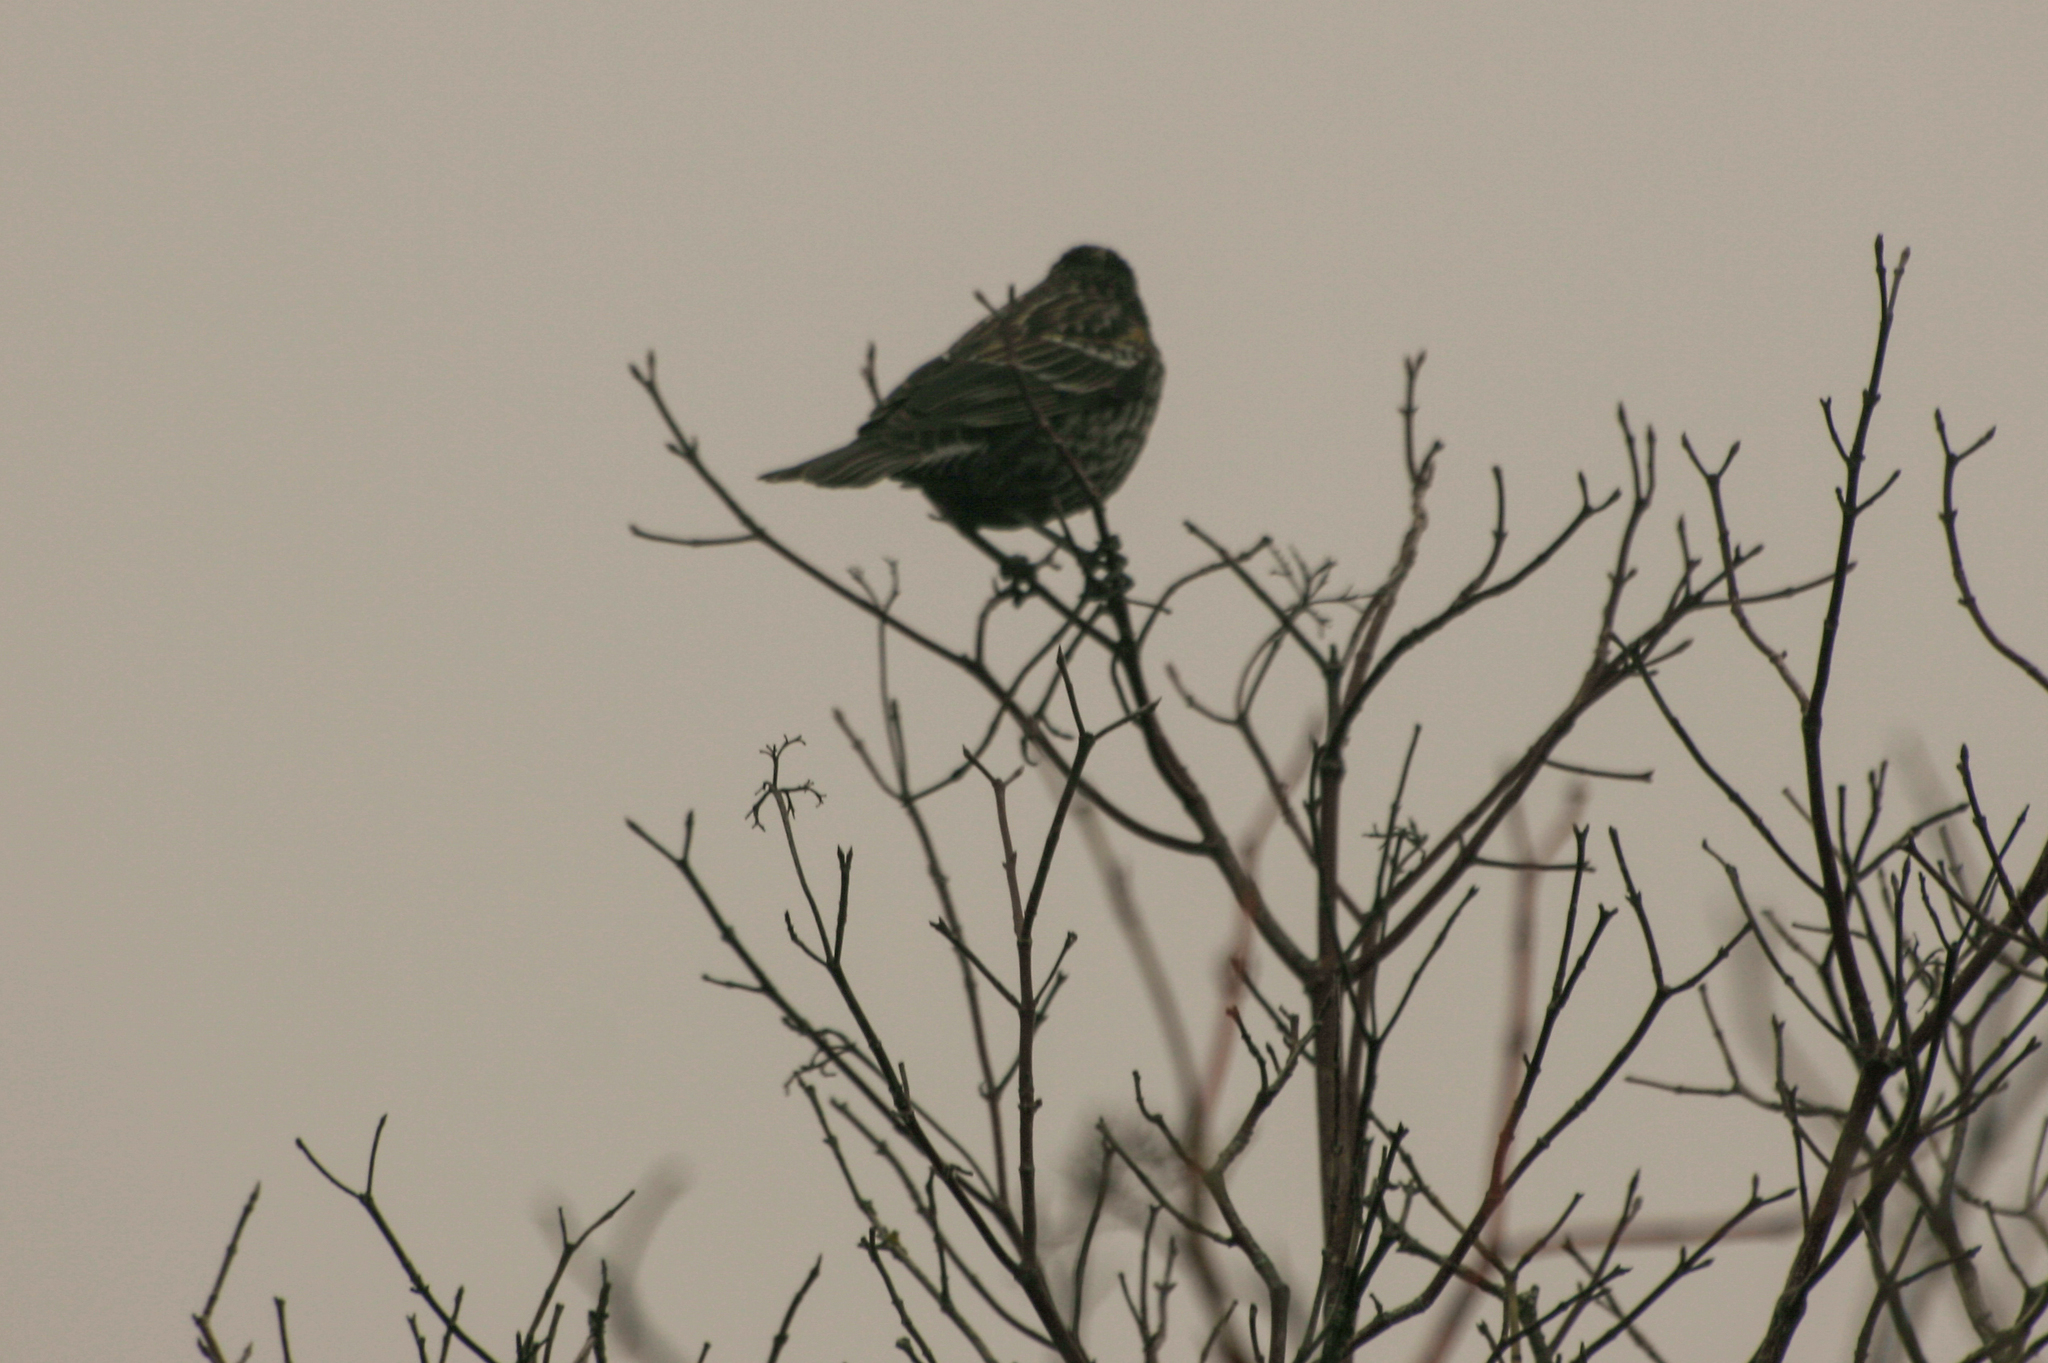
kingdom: Animalia
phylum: Chordata
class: Aves
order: Passeriformes
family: Icteridae
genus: Agelaius
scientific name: Agelaius phoeniceus
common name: Red-winged blackbird
